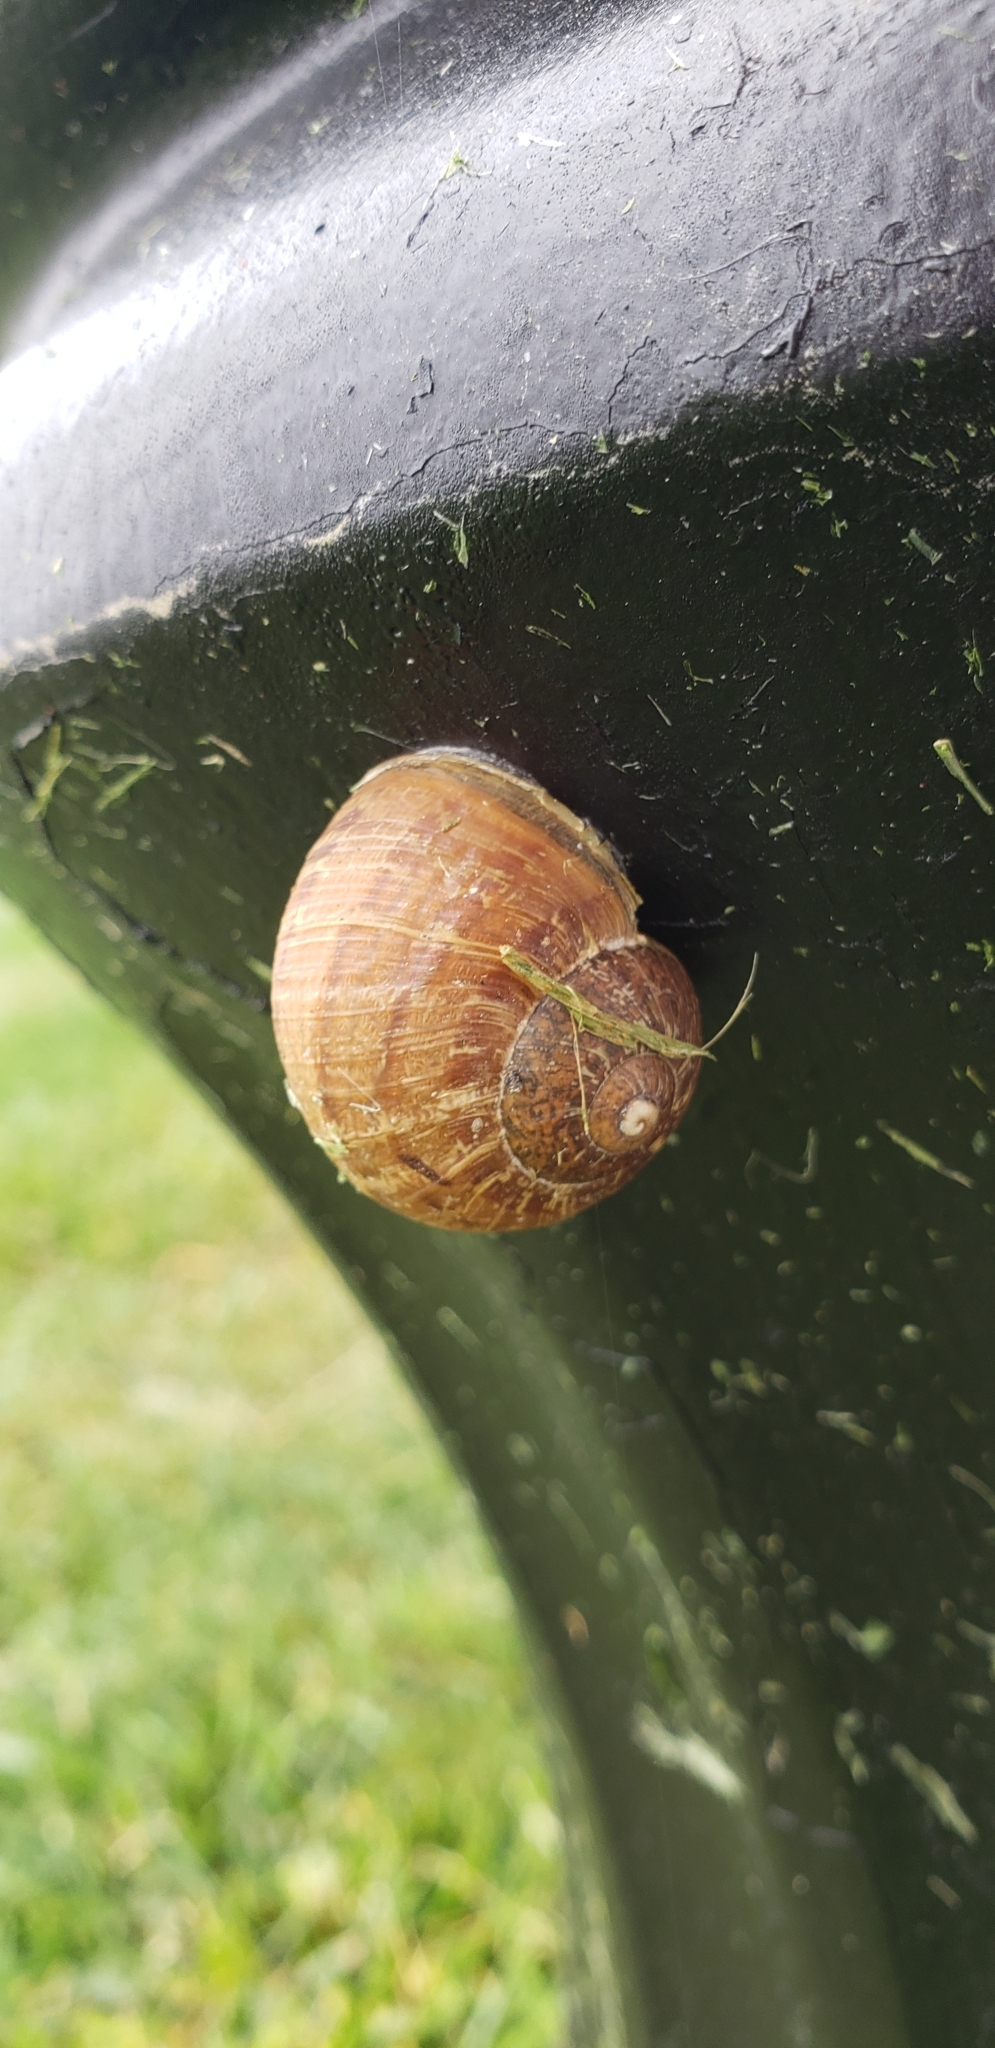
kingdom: Animalia
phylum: Mollusca
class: Gastropoda
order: Stylommatophora
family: Helicidae
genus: Cornu
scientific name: Cornu aspersum
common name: Brown garden snail
